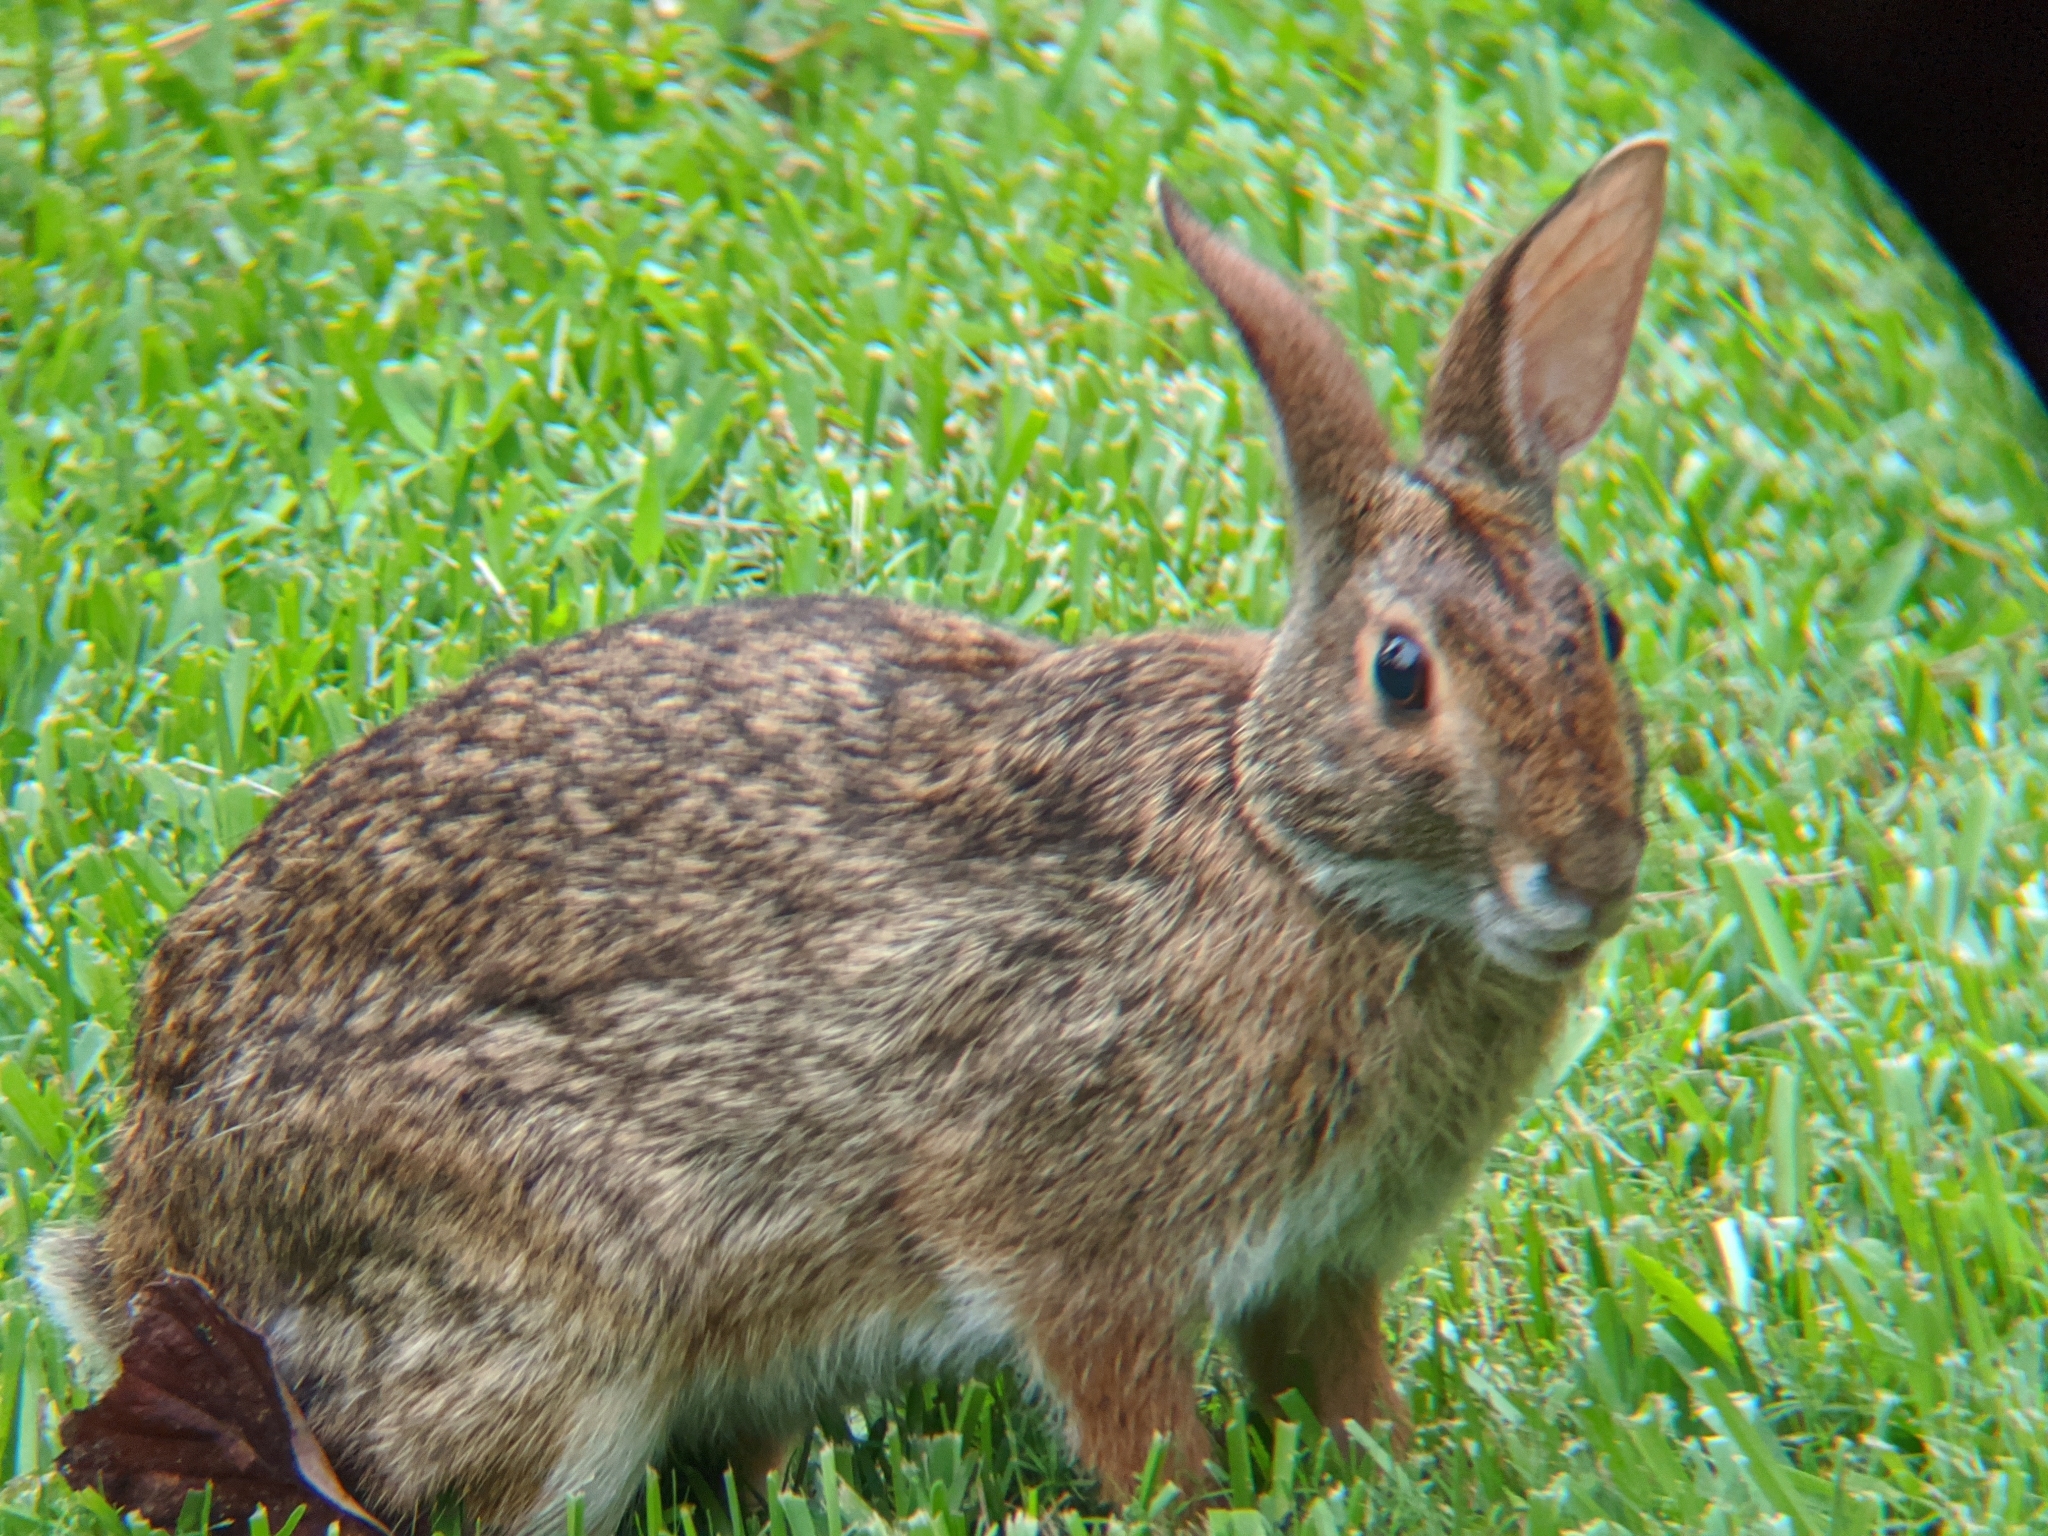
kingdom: Animalia
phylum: Chordata
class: Mammalia
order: Lagomorpha
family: Leporidae
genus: Sylvilagus
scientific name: Sylvilagus aquaticus
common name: Swamp rabbit
